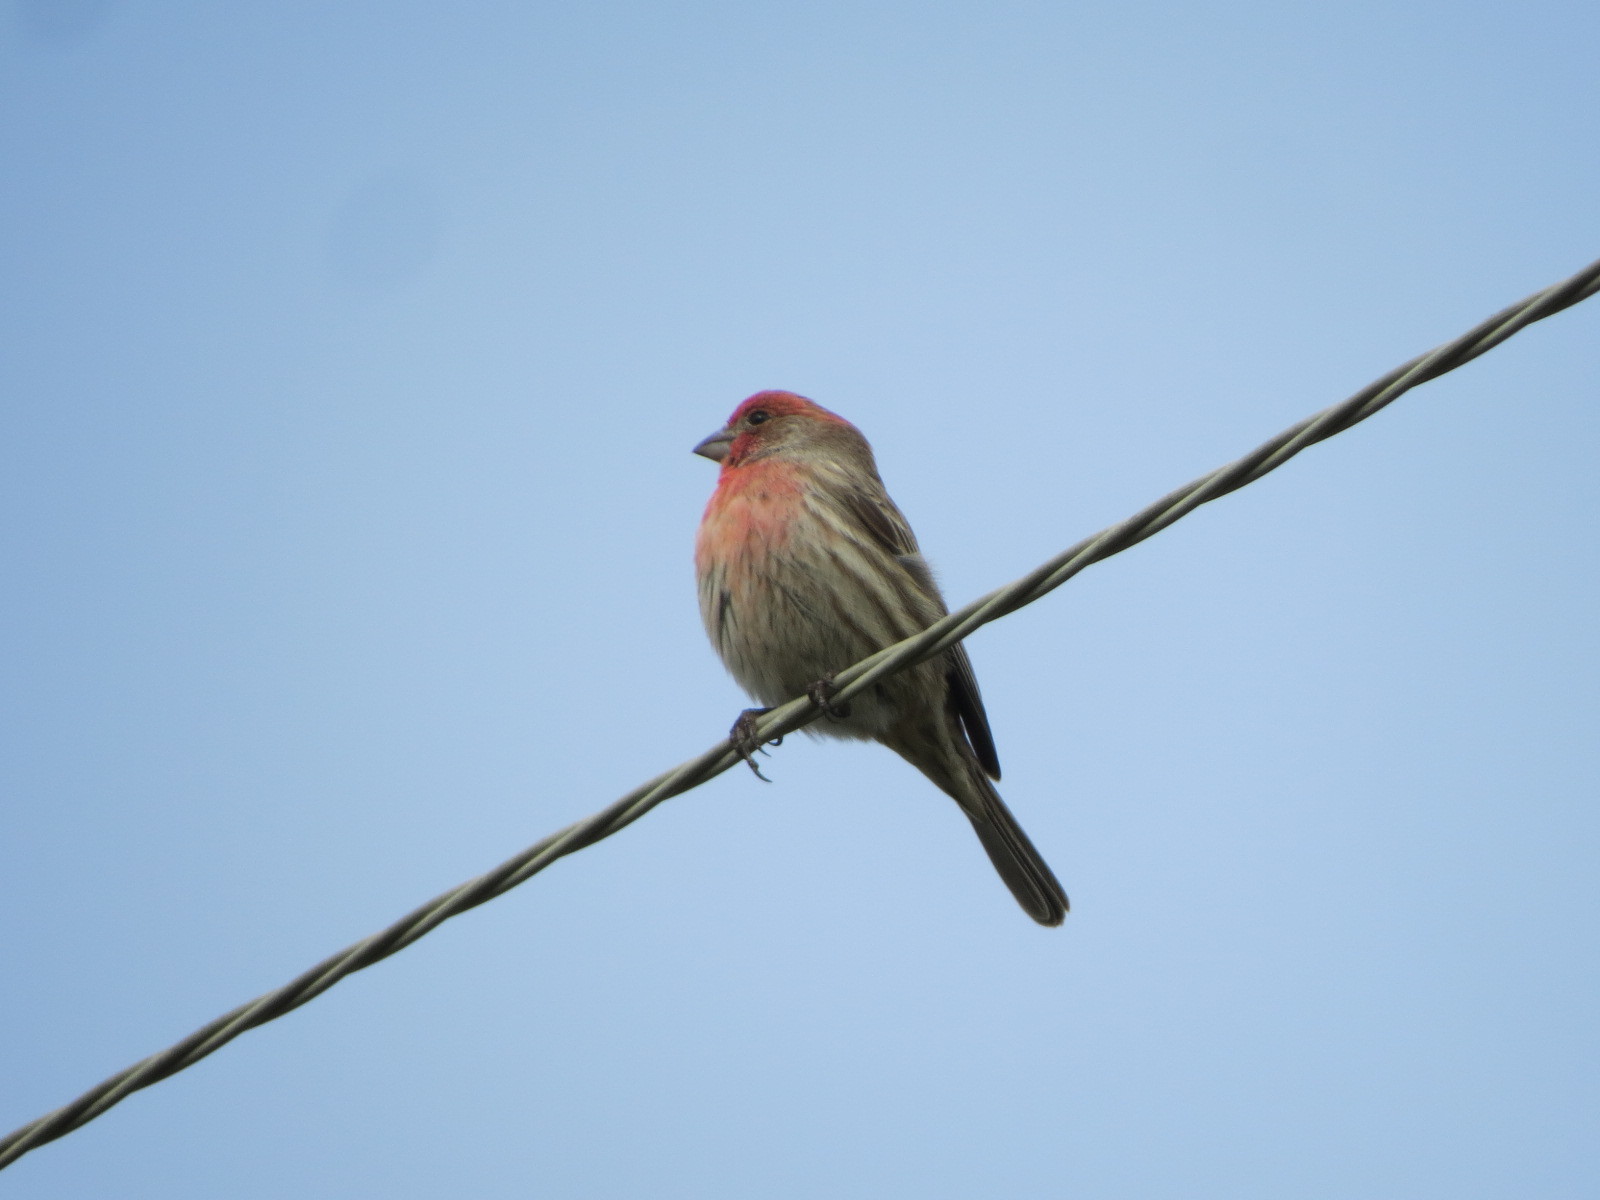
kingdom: Animalia
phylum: Chordata
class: Aves
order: Passeriformes
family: Fringillidae
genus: Haemorhous
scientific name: Haemorhous mexicanus
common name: House finch
